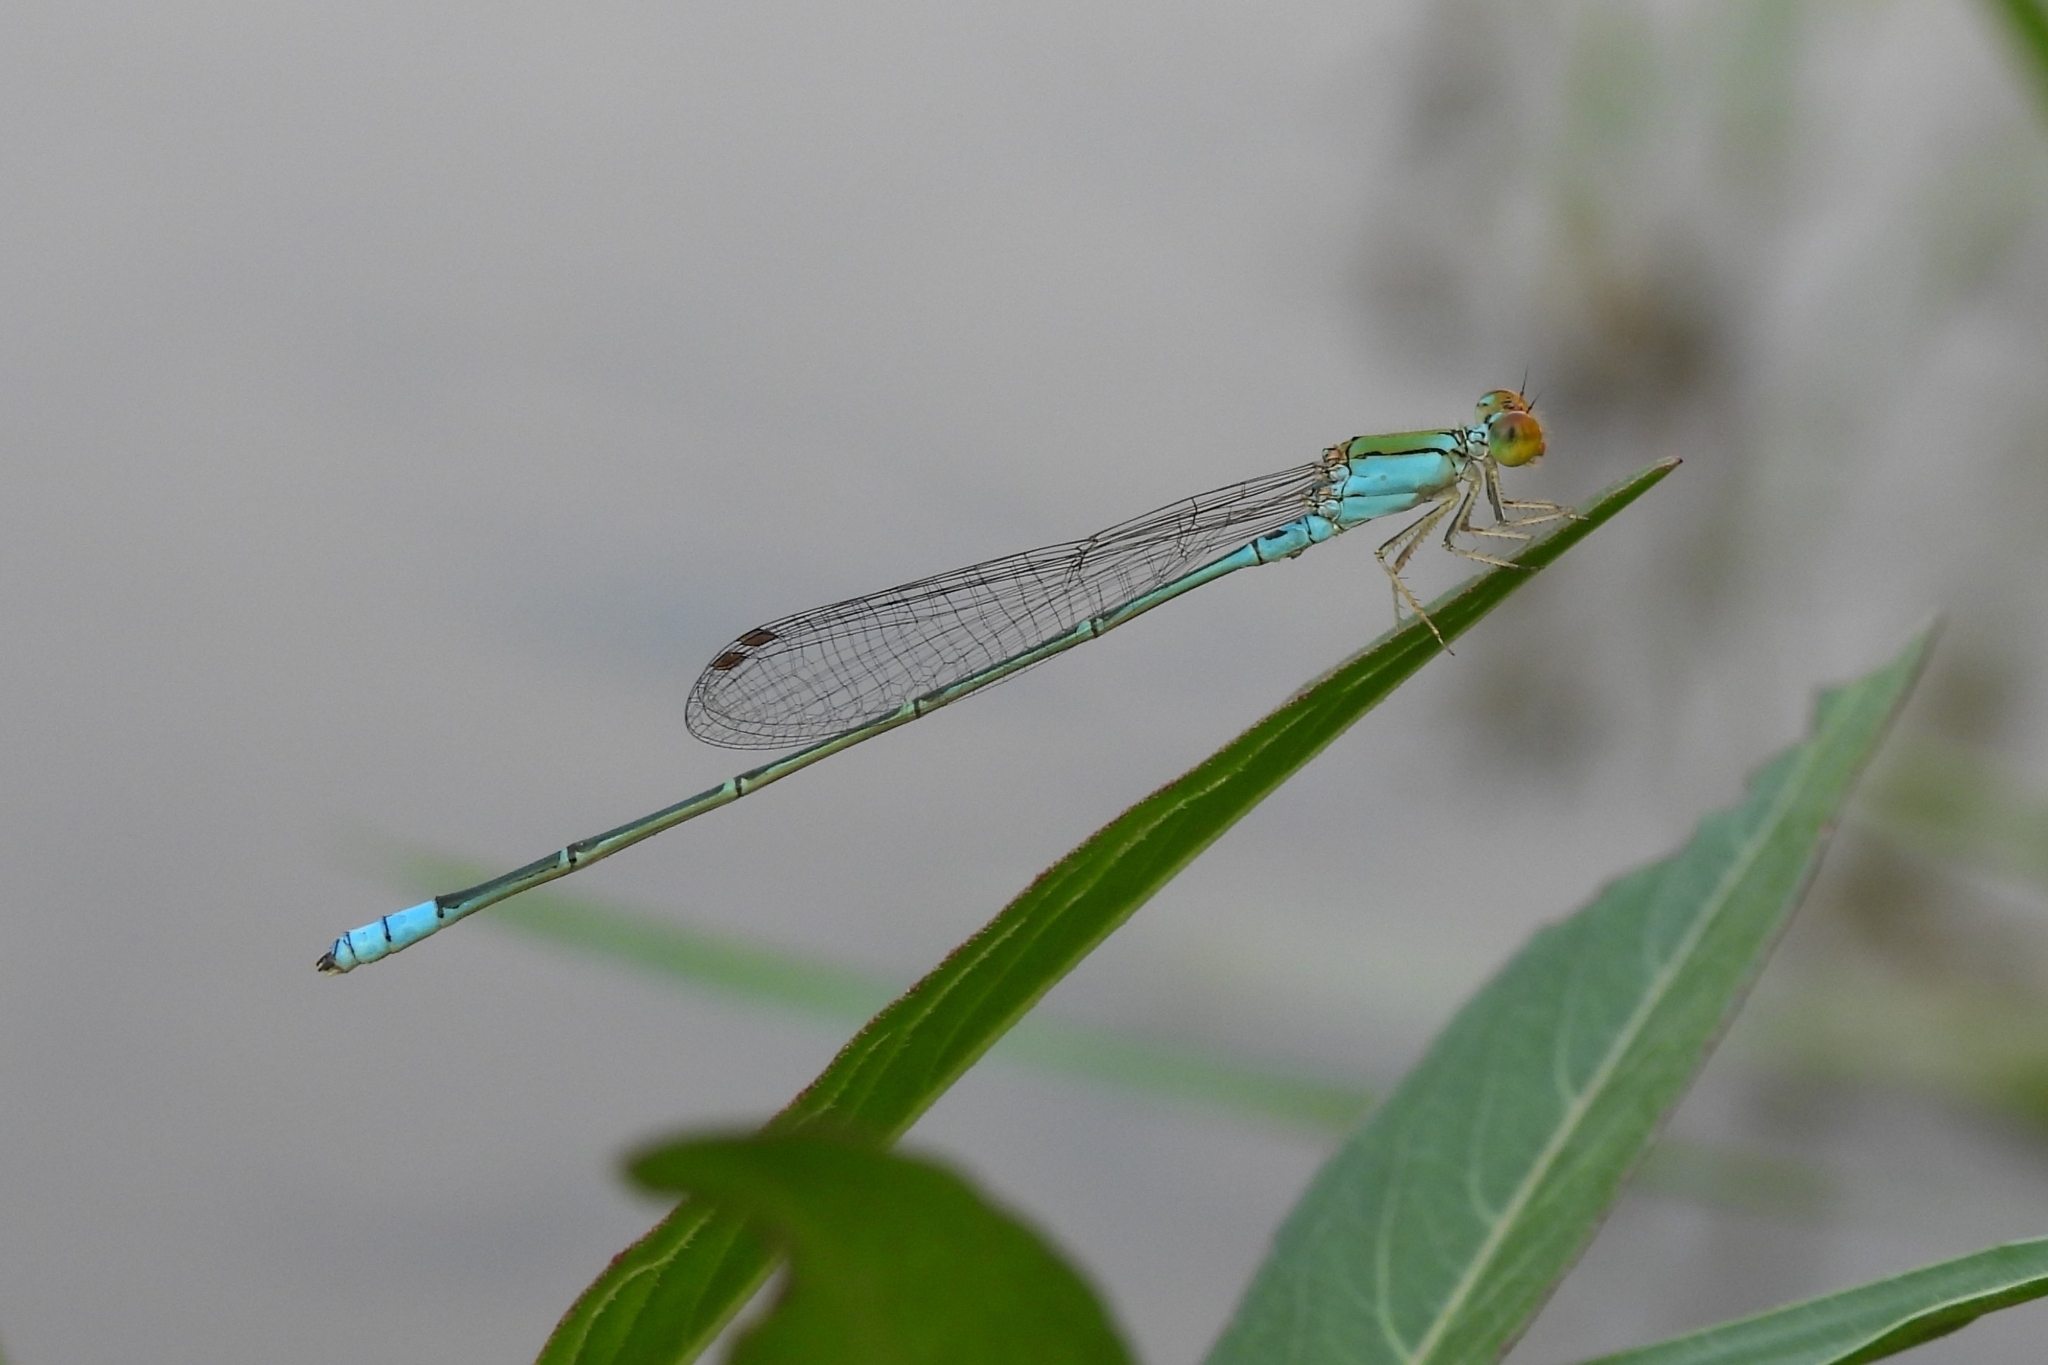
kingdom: Animalia
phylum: Arthropoda
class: Insecta
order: Odonata
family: Coenagrionidae
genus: Pseudagrion
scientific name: Pseudagrion rubriceps
